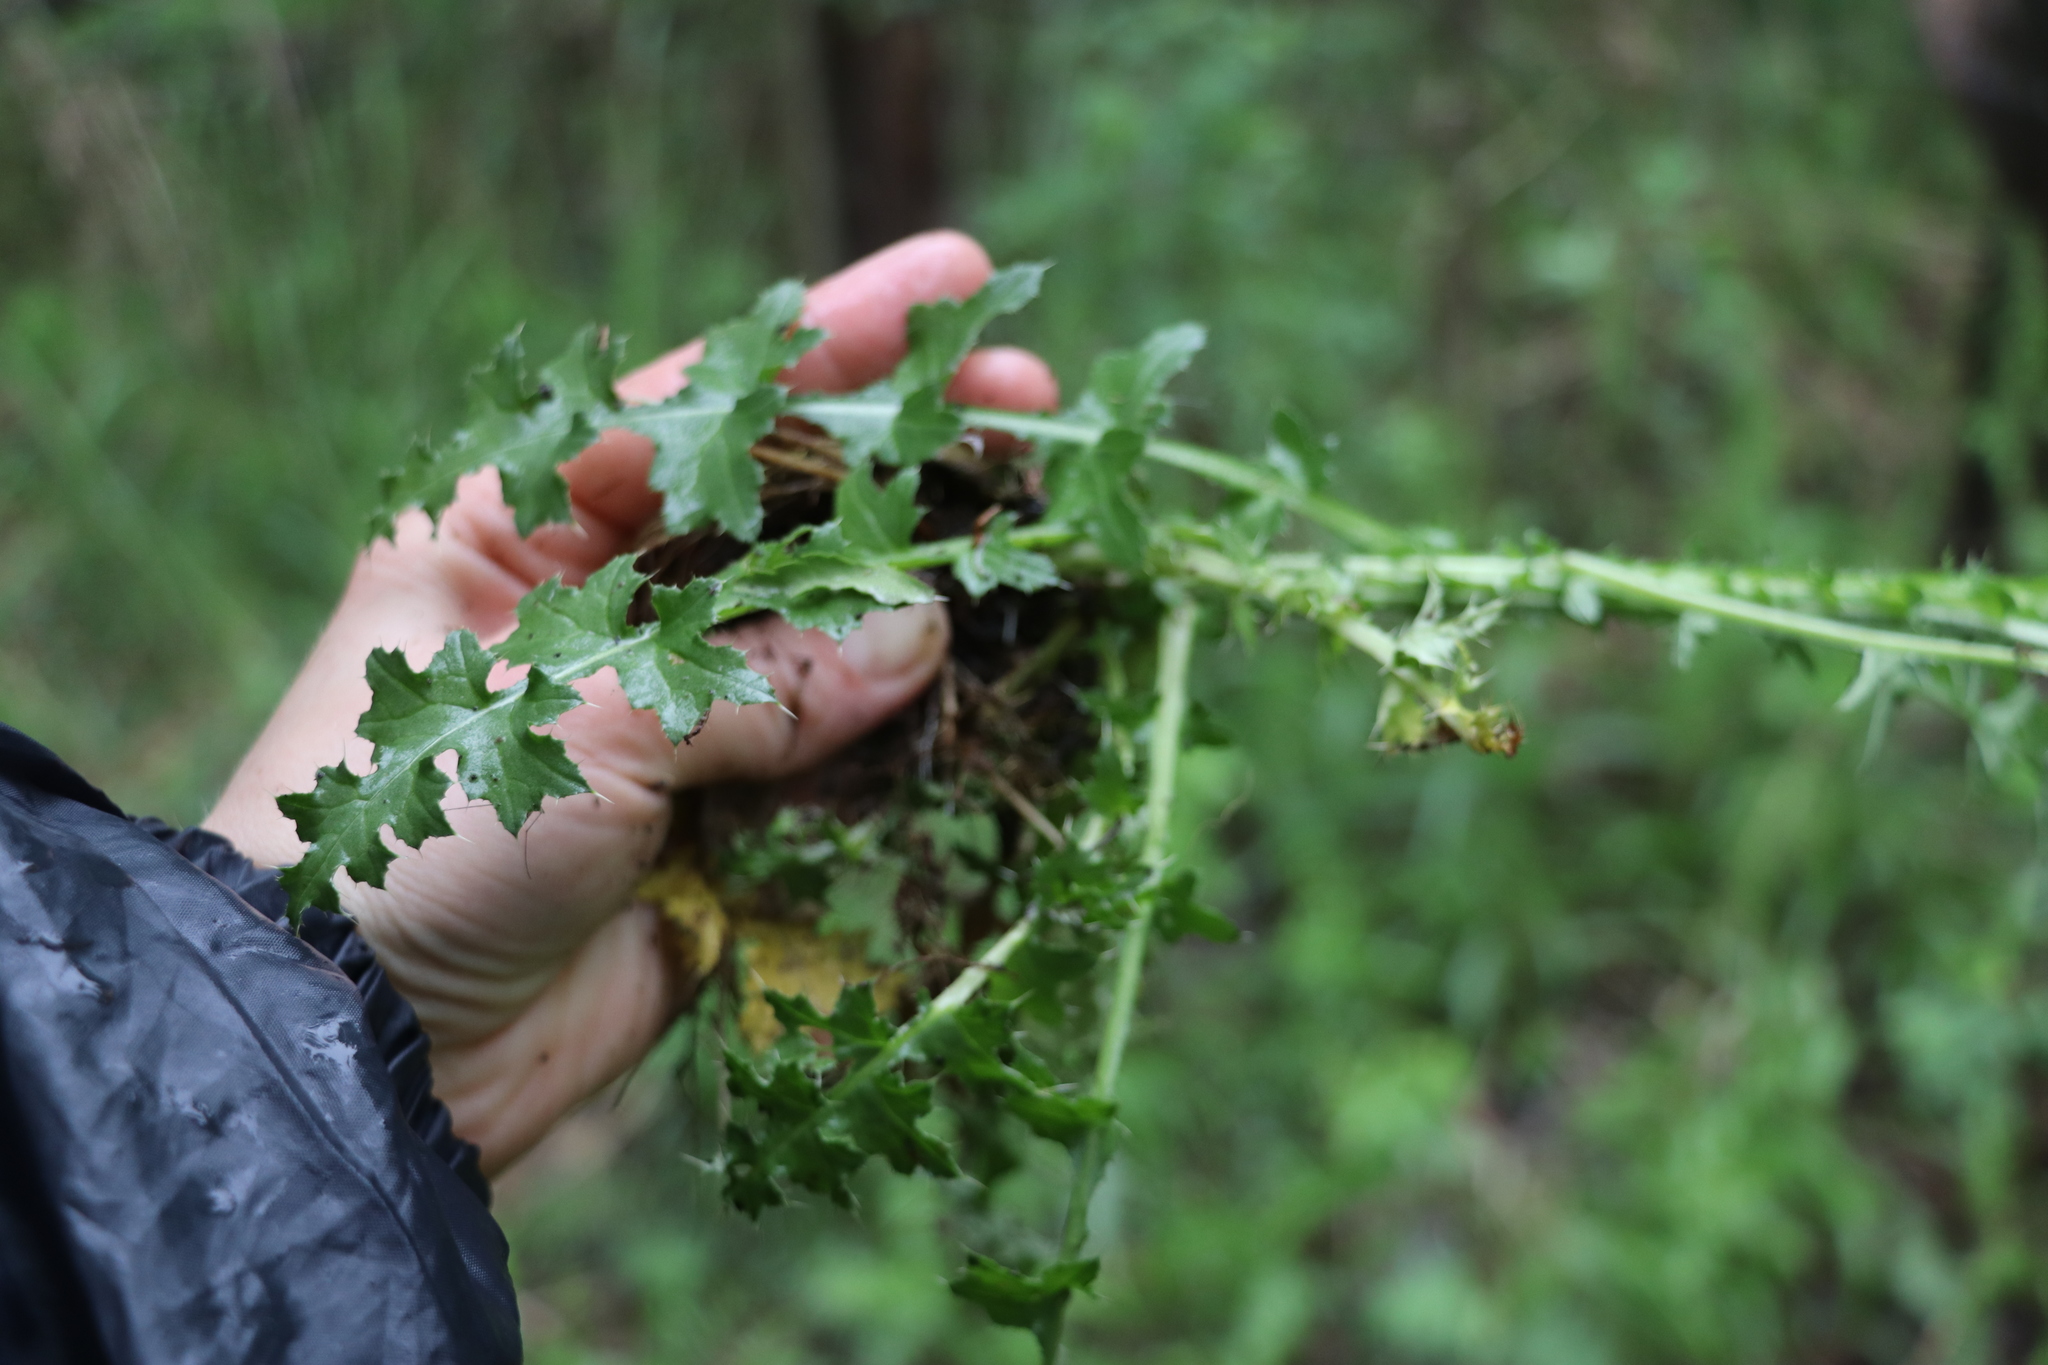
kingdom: Plantae
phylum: Tracheophyta
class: Magnoliopsida
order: Asterales
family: Asteraceae
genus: Carduus
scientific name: Carduus crispus
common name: Welted thistle
